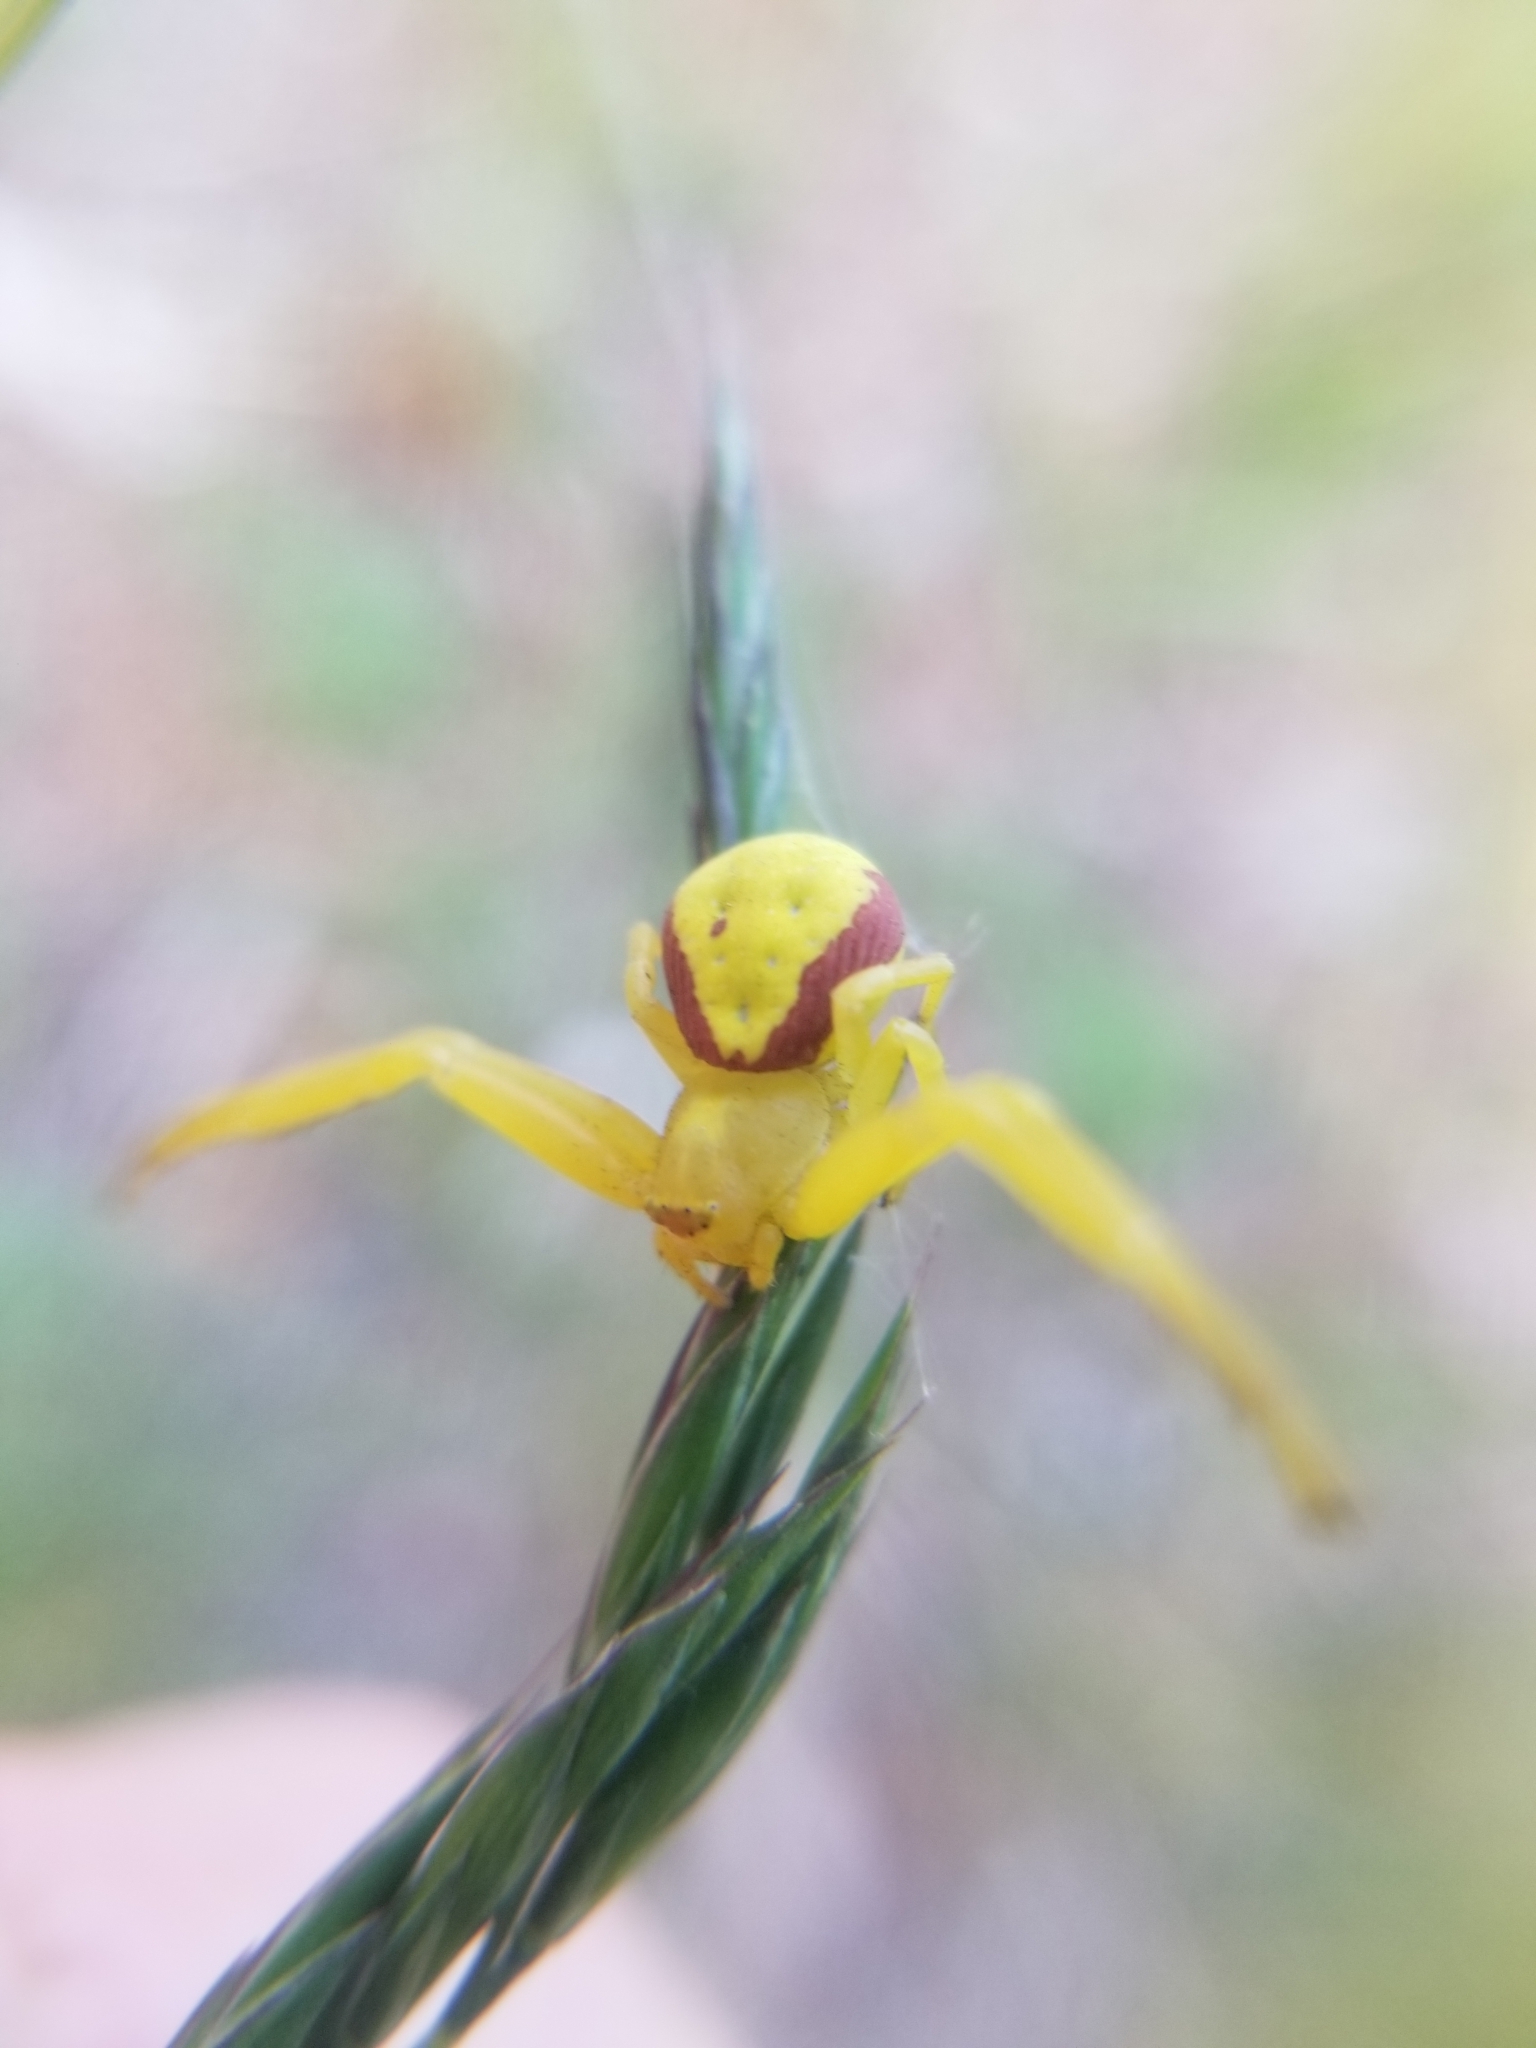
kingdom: Animalia
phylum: Arthropoda
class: Arachnida
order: Araneae
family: Thomisidae
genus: Misumena
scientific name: Misumena vatia
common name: Goldenrod crab spider
